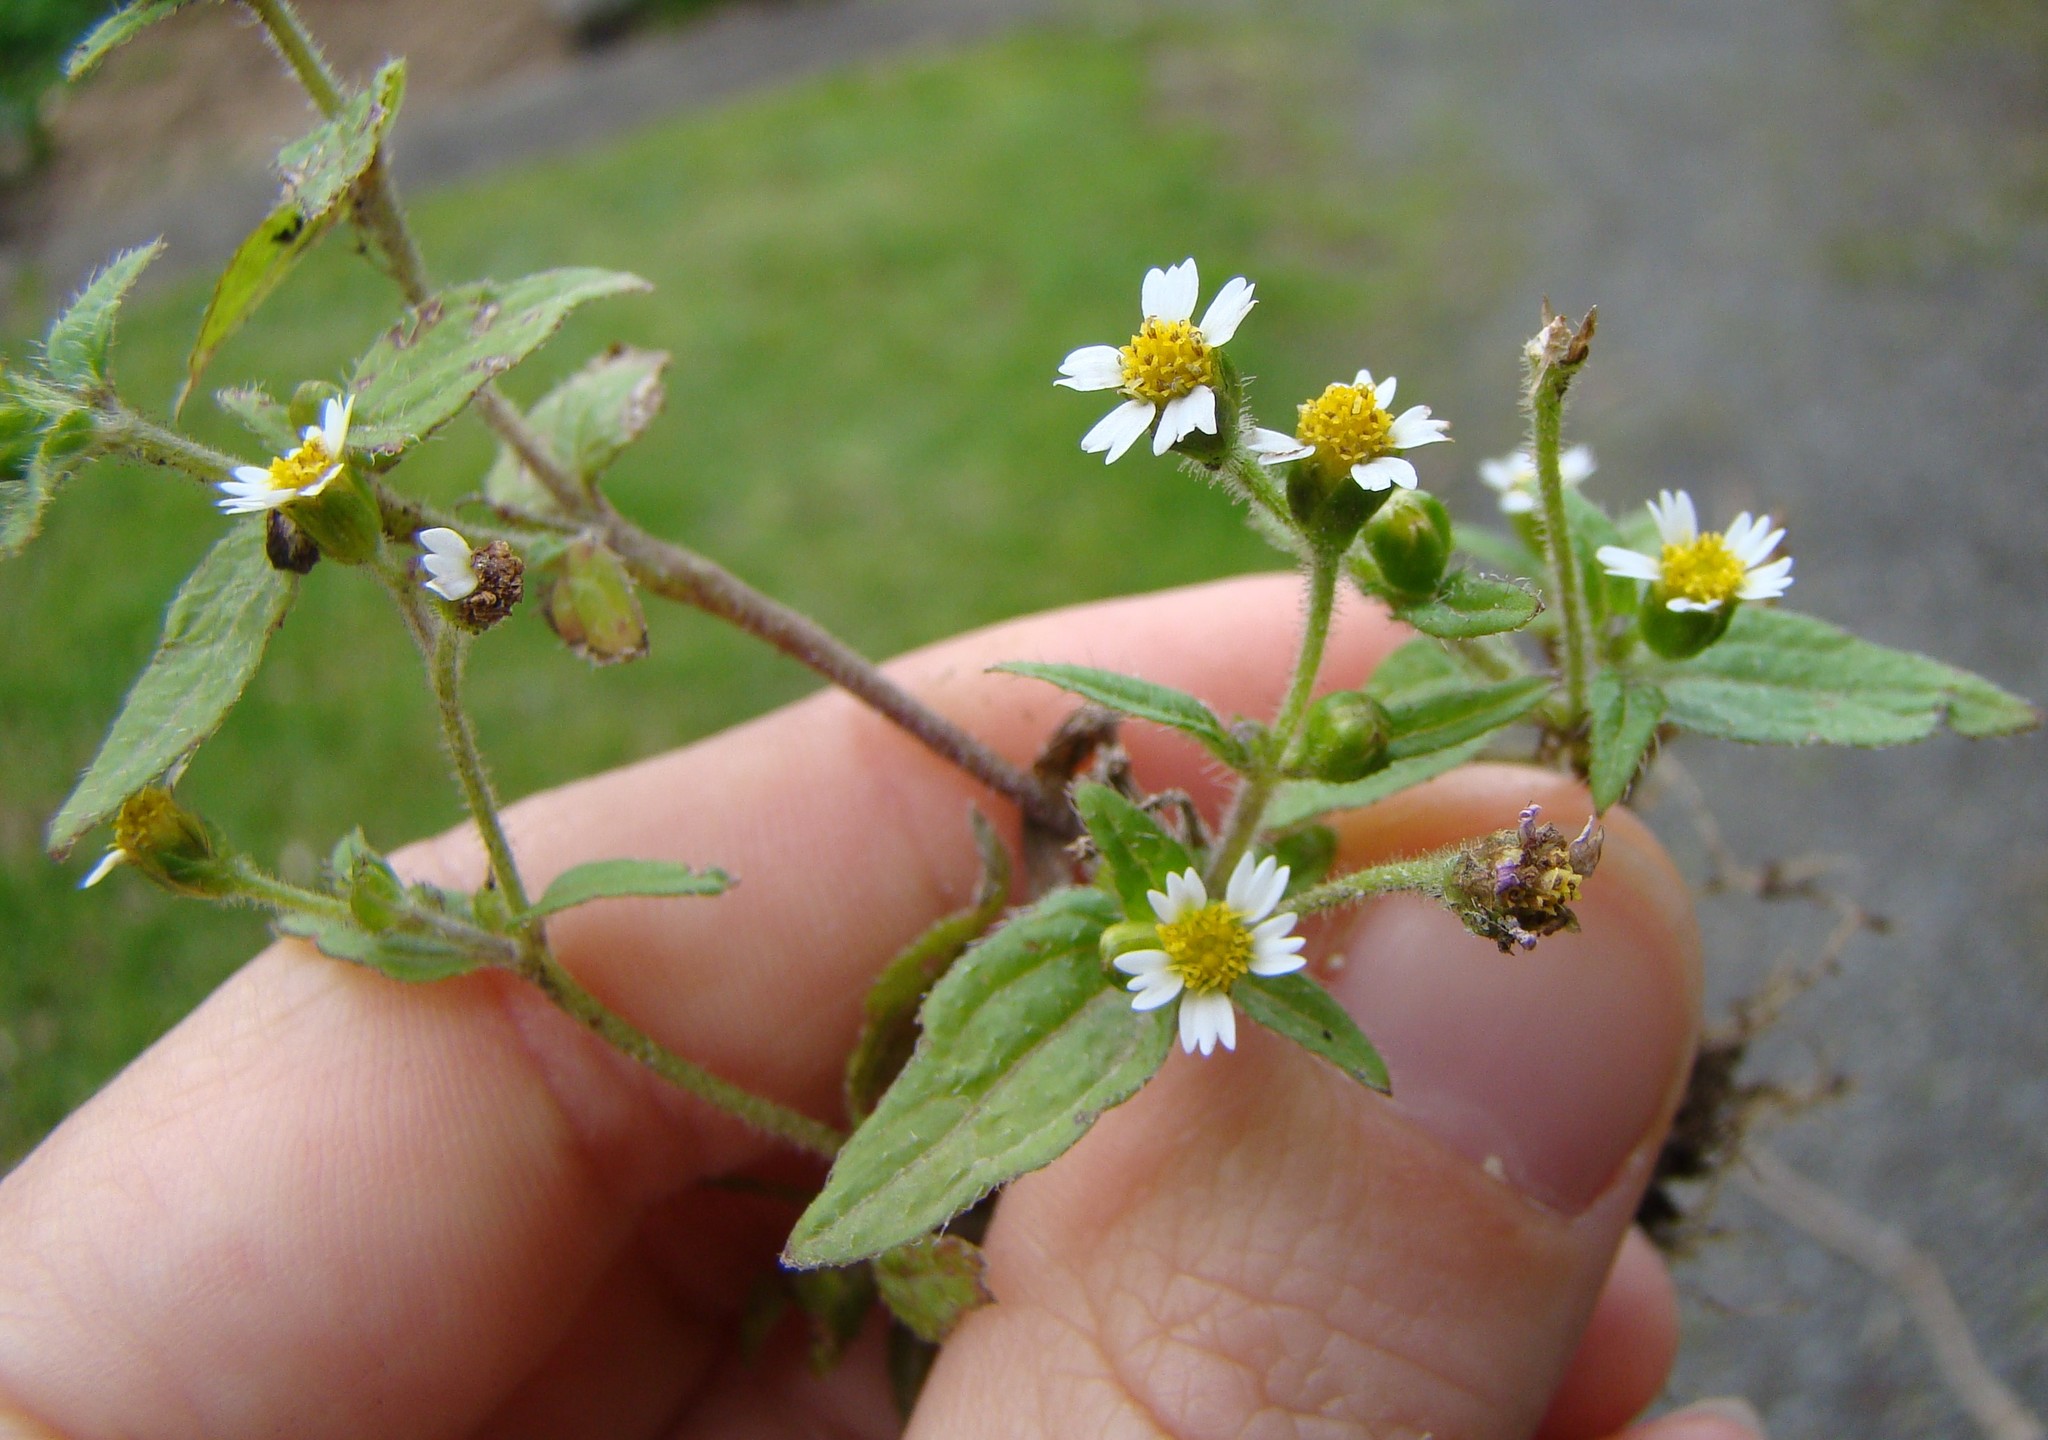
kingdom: Plantae
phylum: Tracheophyta
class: Magnoliopsida
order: Asterales
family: Asteraceae
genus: Galinsoga
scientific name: Galinsoga quadriradiata
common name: Shaggy soldier
